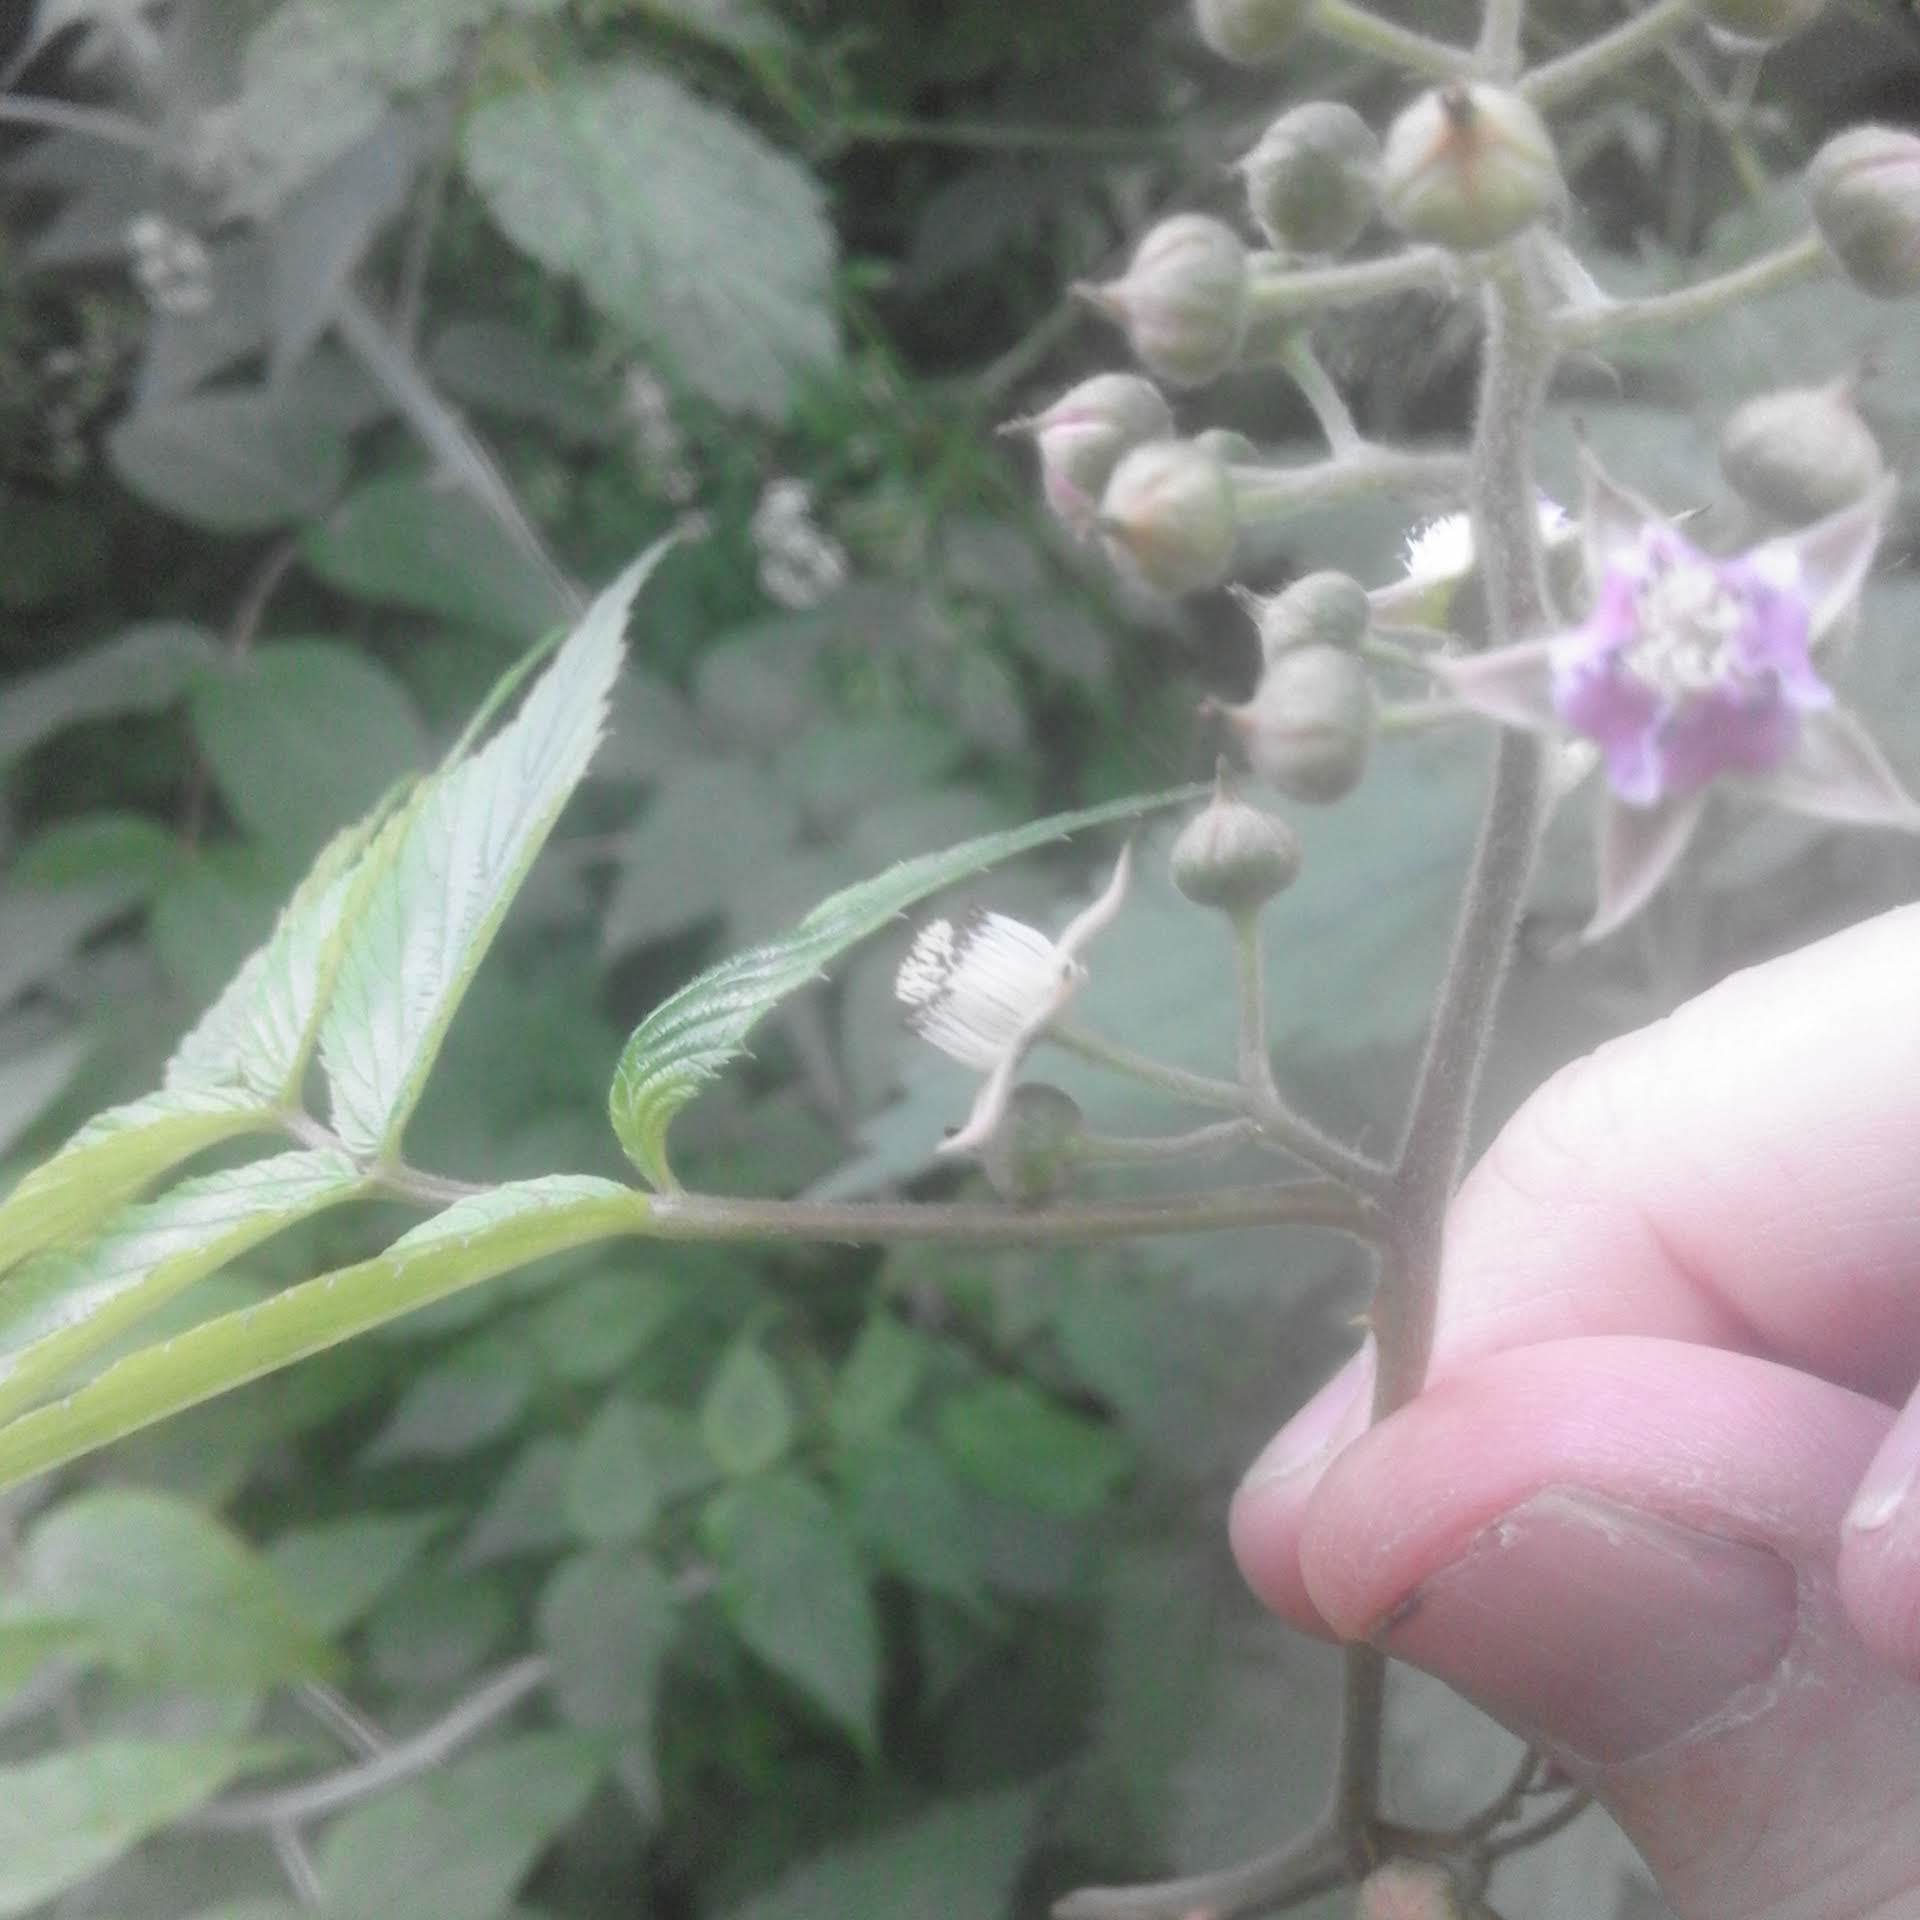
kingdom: Plantae
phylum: Tracheophyta
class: Magnoliopsida
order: Rosales
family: Rosaceae
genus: Rubus
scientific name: Rubus cockburnianus
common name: White-stemmed bramble
